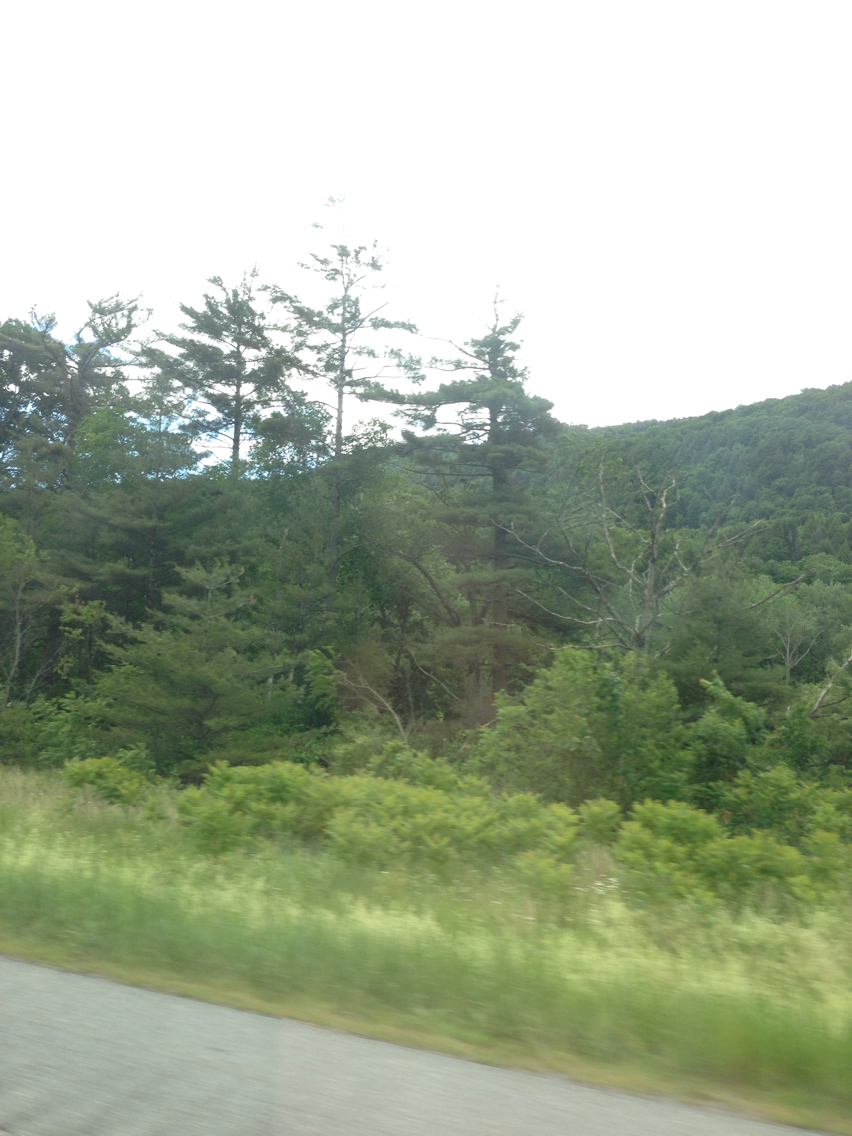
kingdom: Plantae
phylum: Tracheophyta
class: Pinopsida
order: Pinales
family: Pinaceae
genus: Pinus
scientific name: Pinus strobus
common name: Weymouth pine
